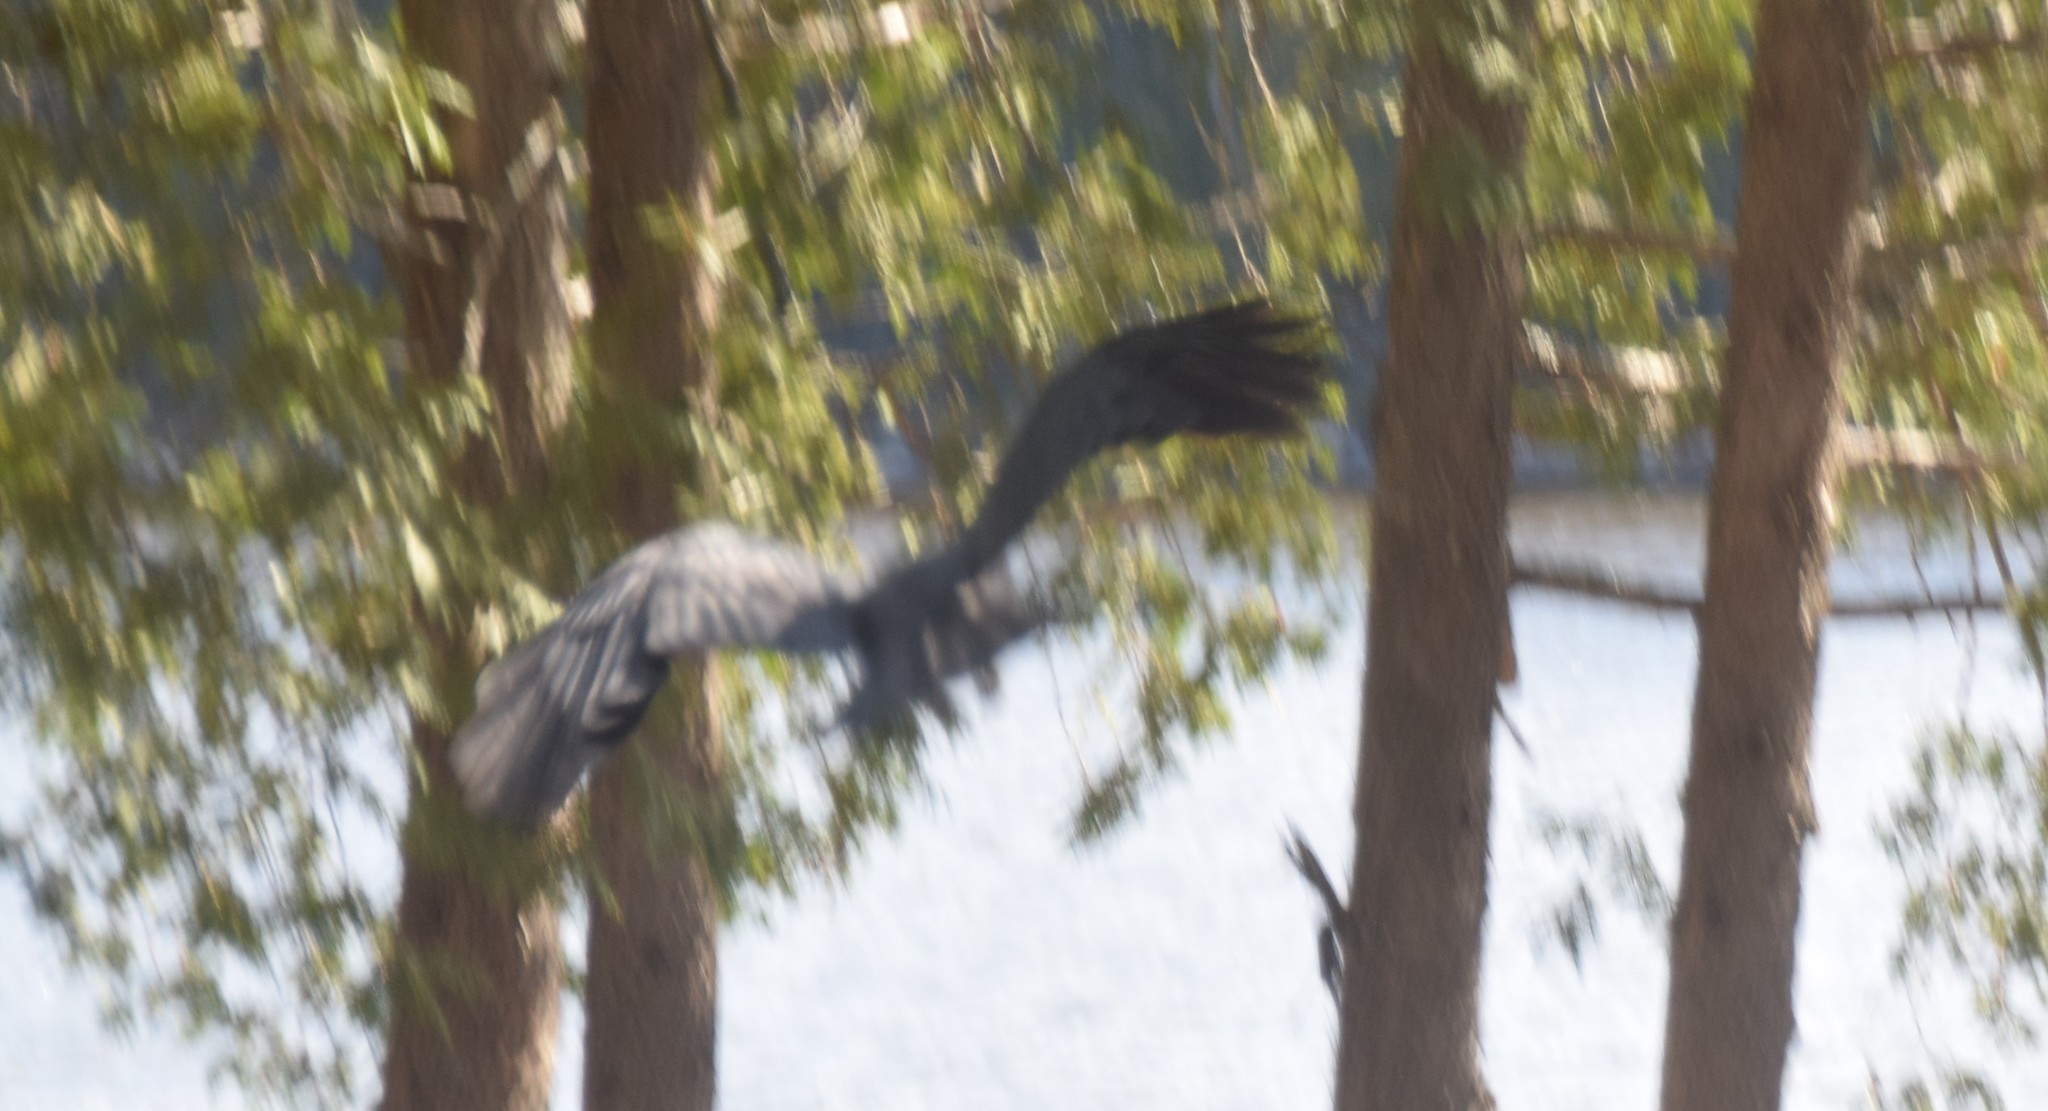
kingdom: Animalia
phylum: Chordata
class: Aves
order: Passeriformes
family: Corvidae
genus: Corvus
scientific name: Corvus corax
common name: Common raven
